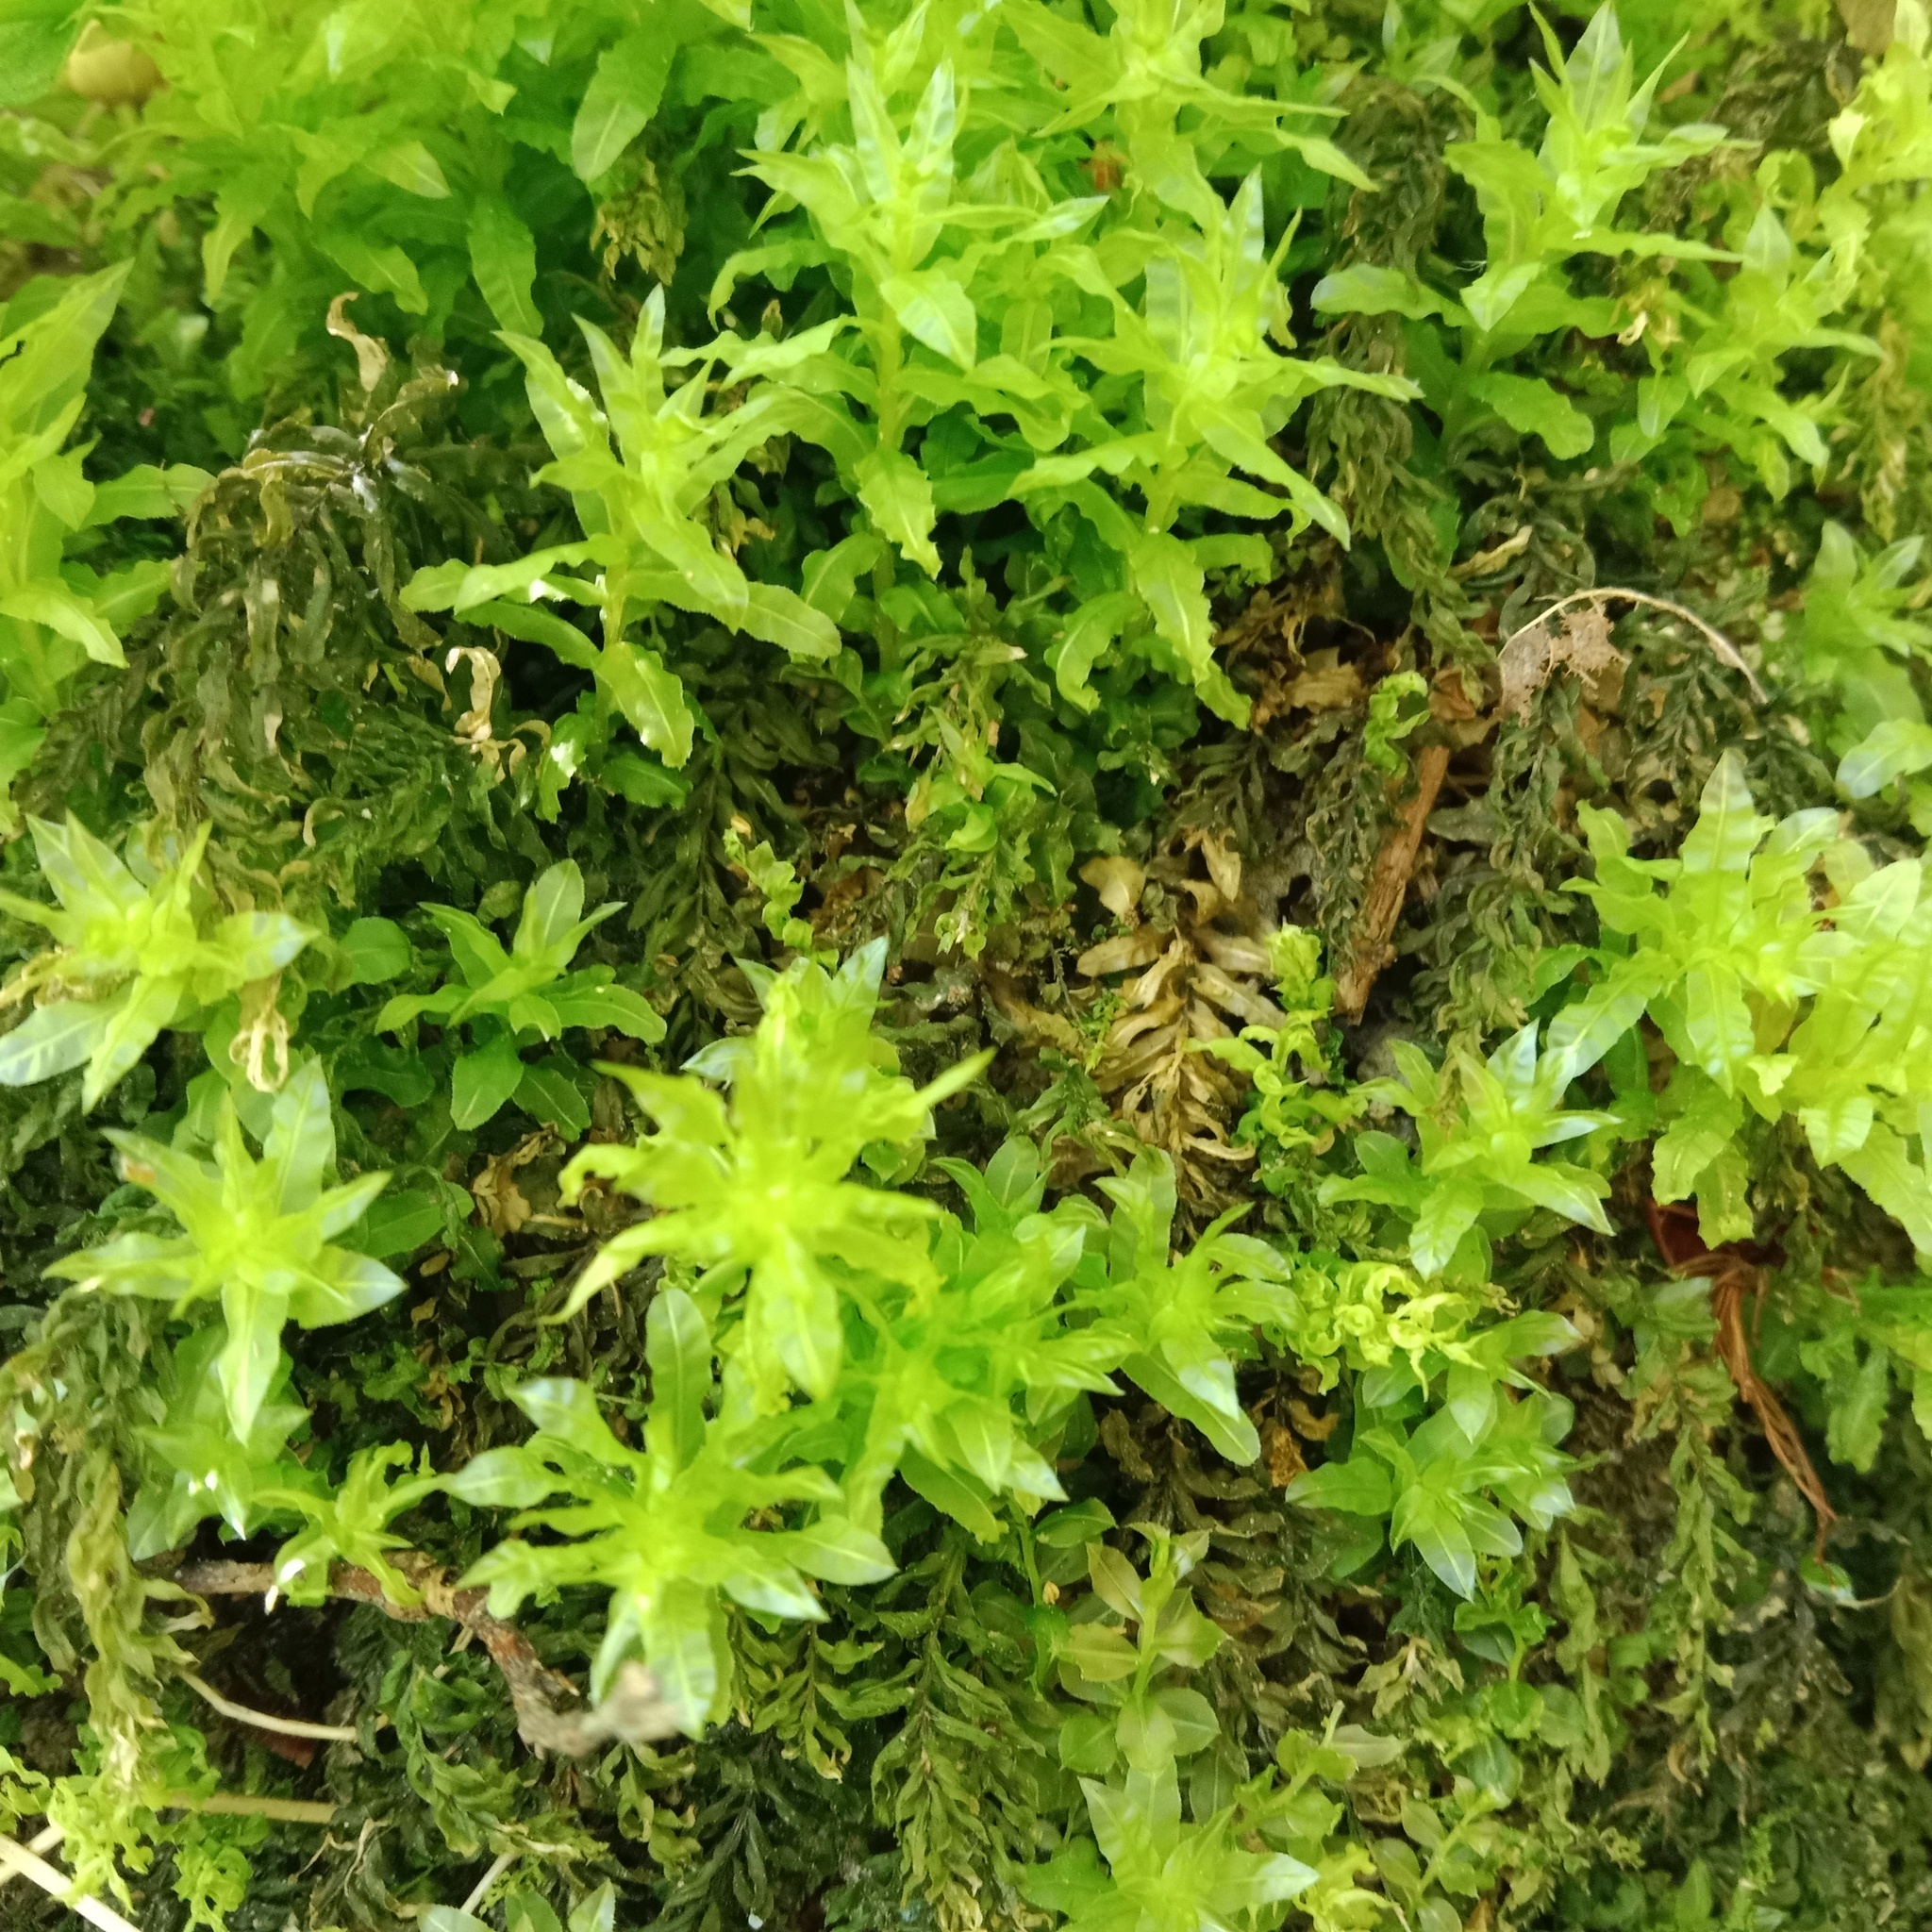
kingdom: Plantae
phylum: Bryophyta
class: Bryopsida
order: Bryales
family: Mniaceae
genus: Plagiomnium
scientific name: Plagiomnium undulatum
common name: Hart's-tongue thyme-moss
